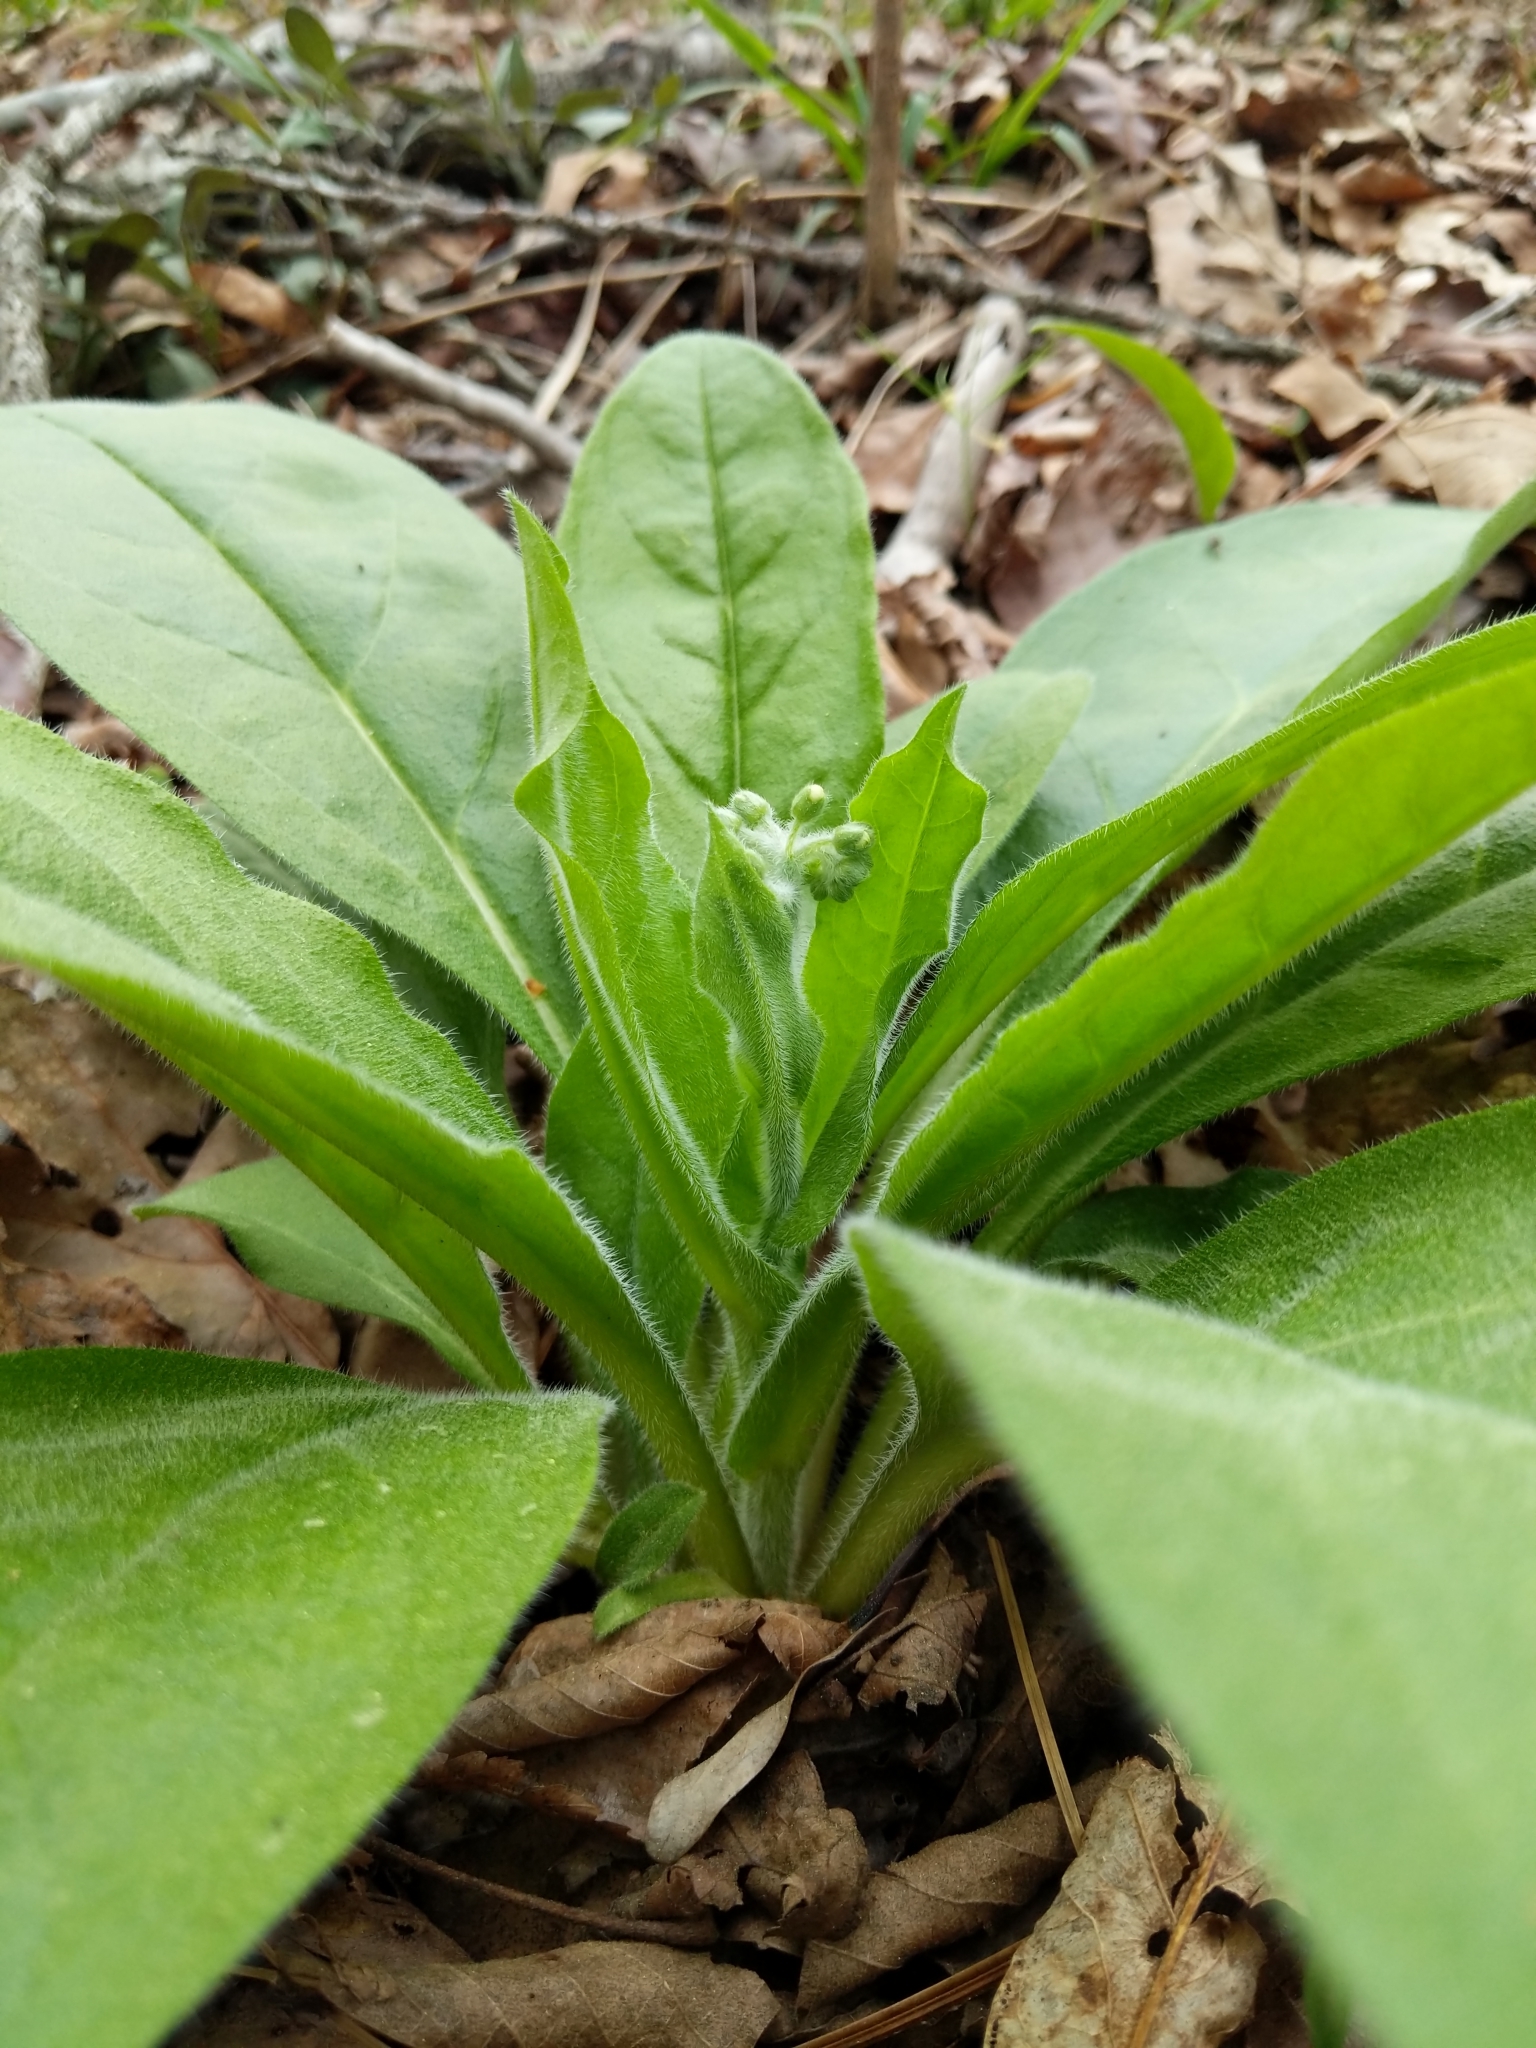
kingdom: Plantae
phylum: Tracheophyta
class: Magnoliopsida
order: Boraginales
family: Boraginaceae
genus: Andersonglossum
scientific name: Andersonglossum virginianum
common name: Wild comfrey
